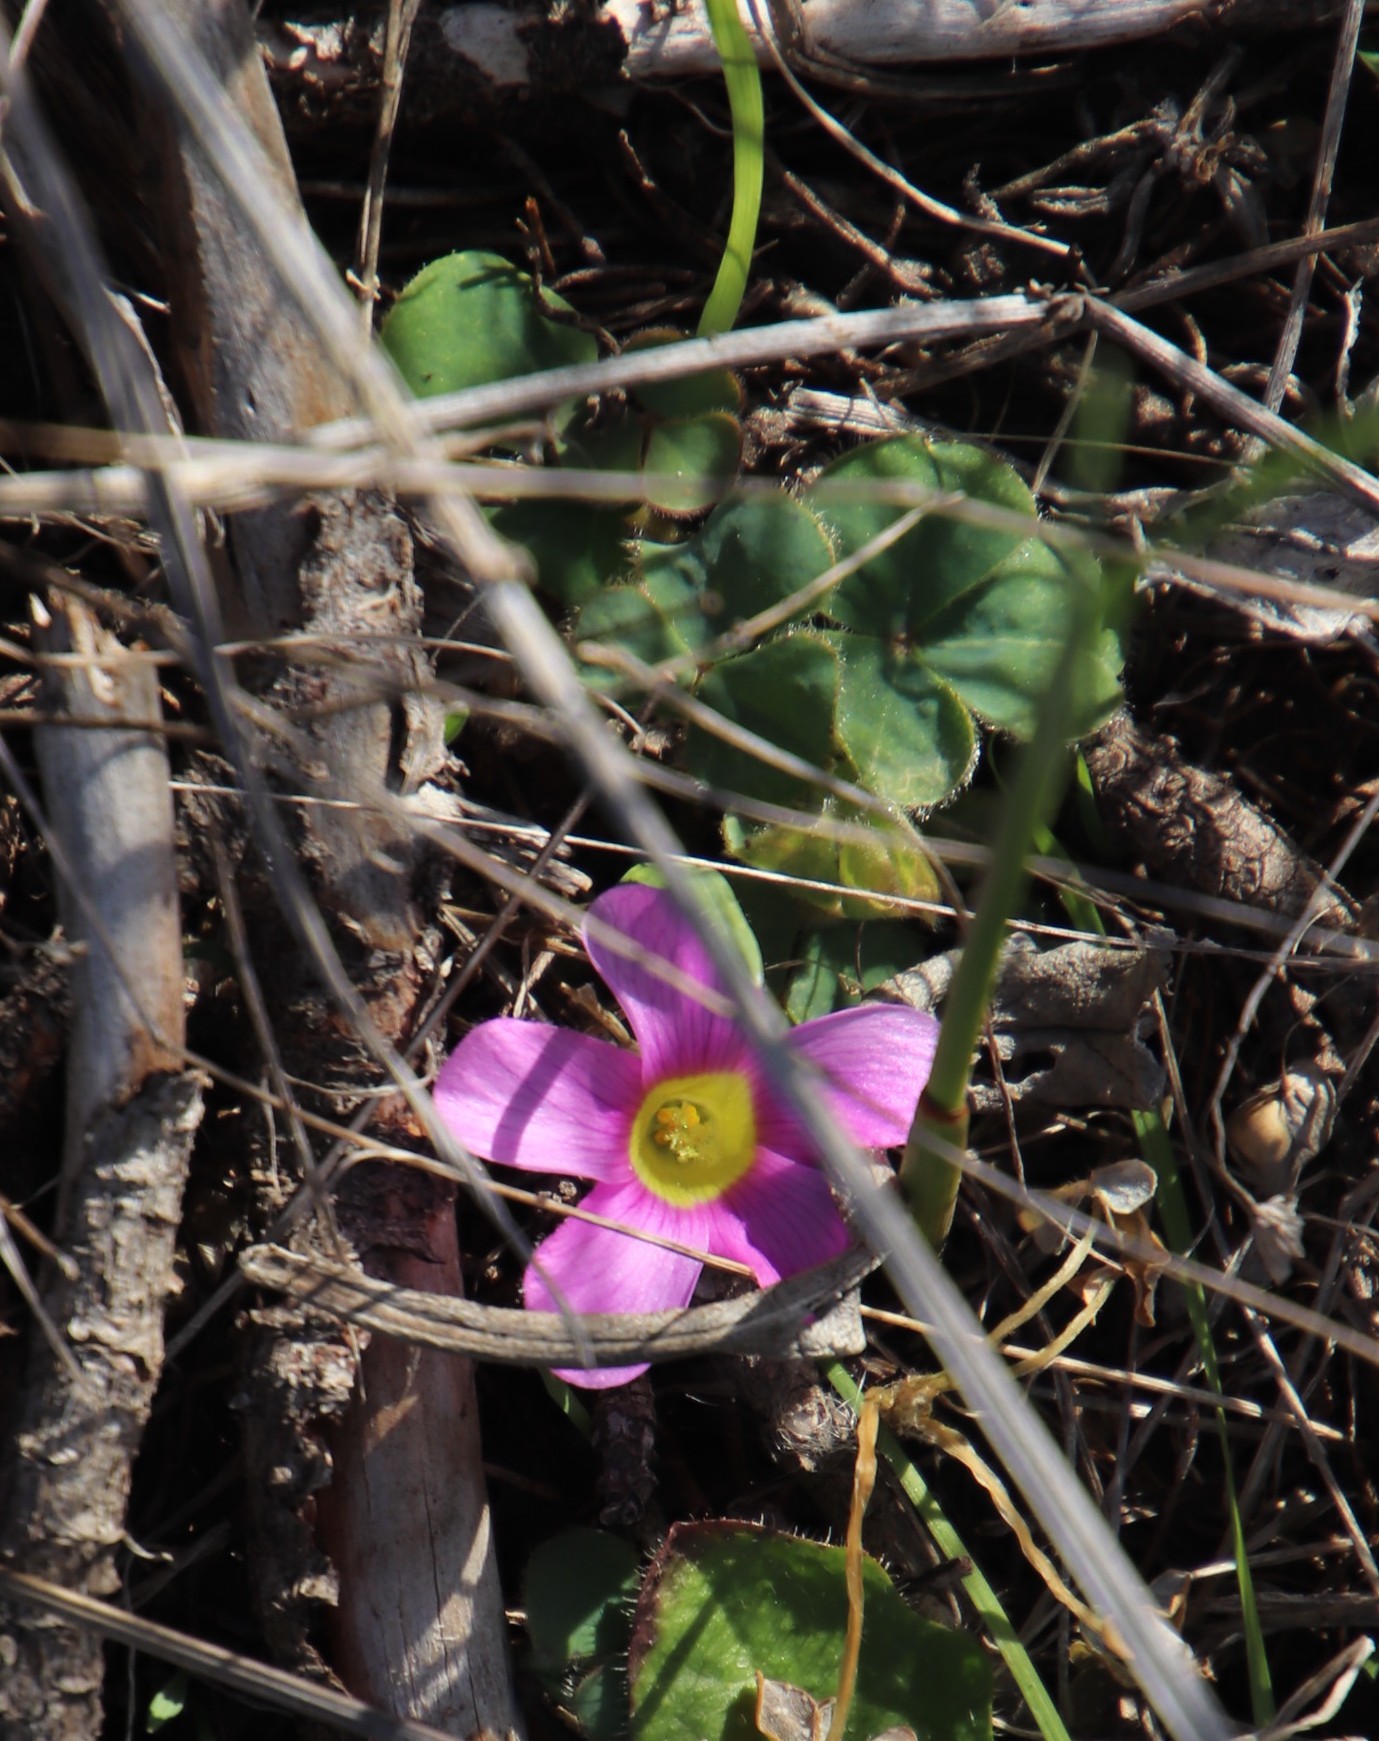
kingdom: Plantae
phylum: Tracheophyta
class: Magnoliopsida
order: Oxalidales
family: Oxalidaceae
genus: Oxalis
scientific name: Oxalis purpurea
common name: Purple woodsorrel
